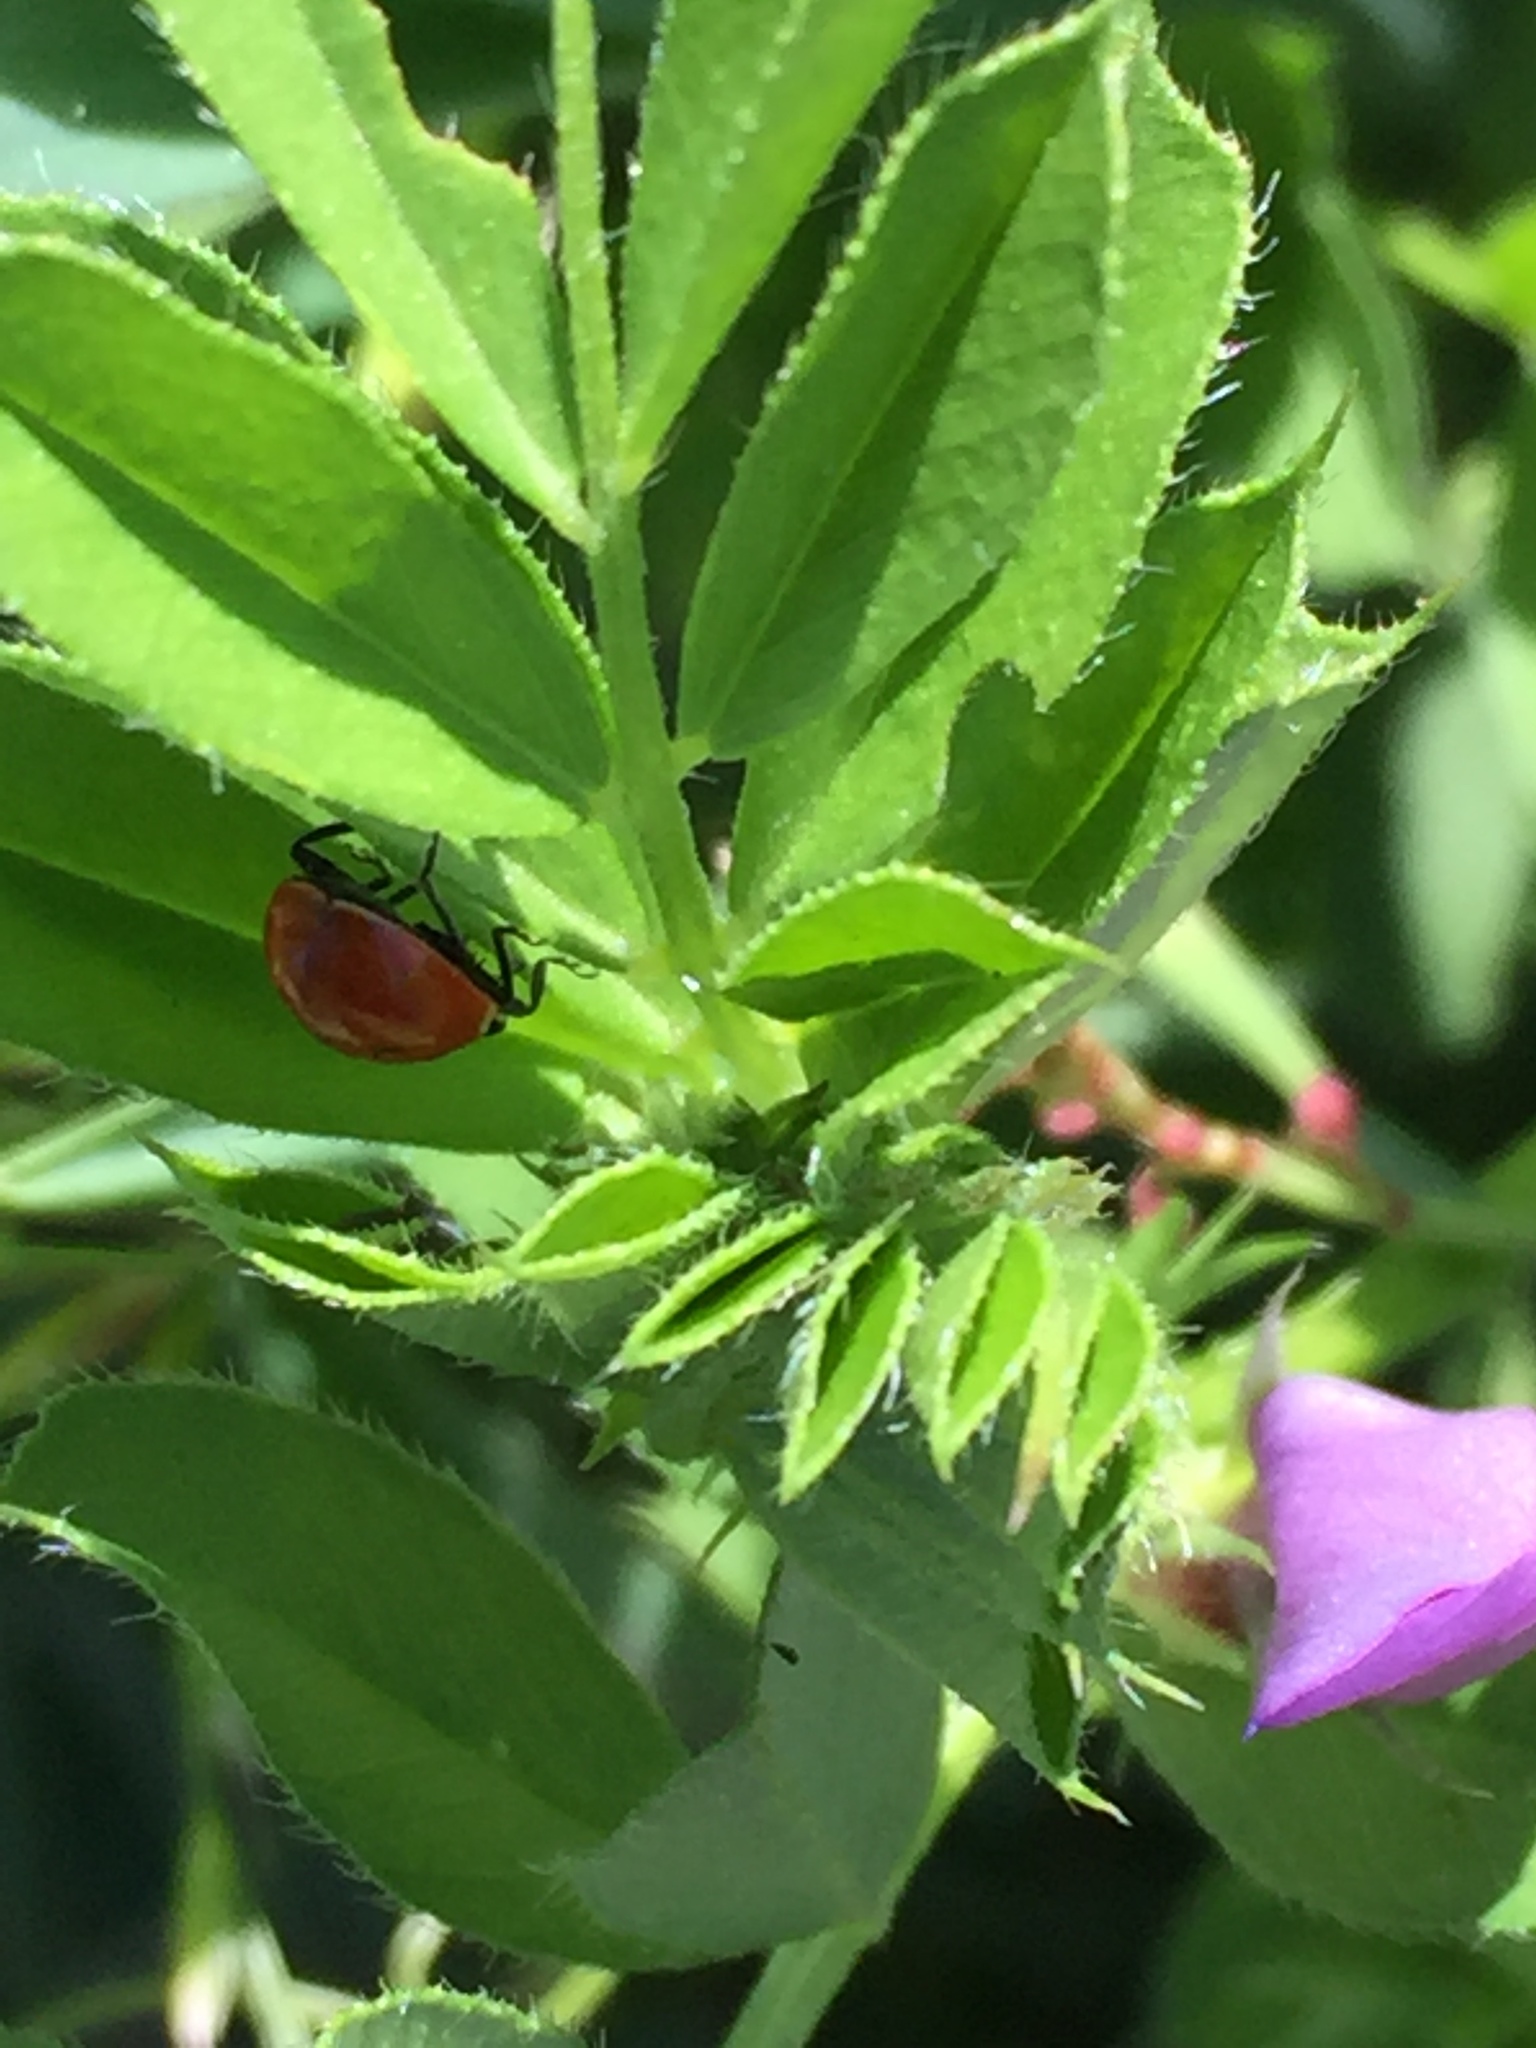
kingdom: Animalia
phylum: Arthropoda
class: Insecta
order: Coleoptera
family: Coccinellidae
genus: Coccinella
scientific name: Coccinella trifasciata
